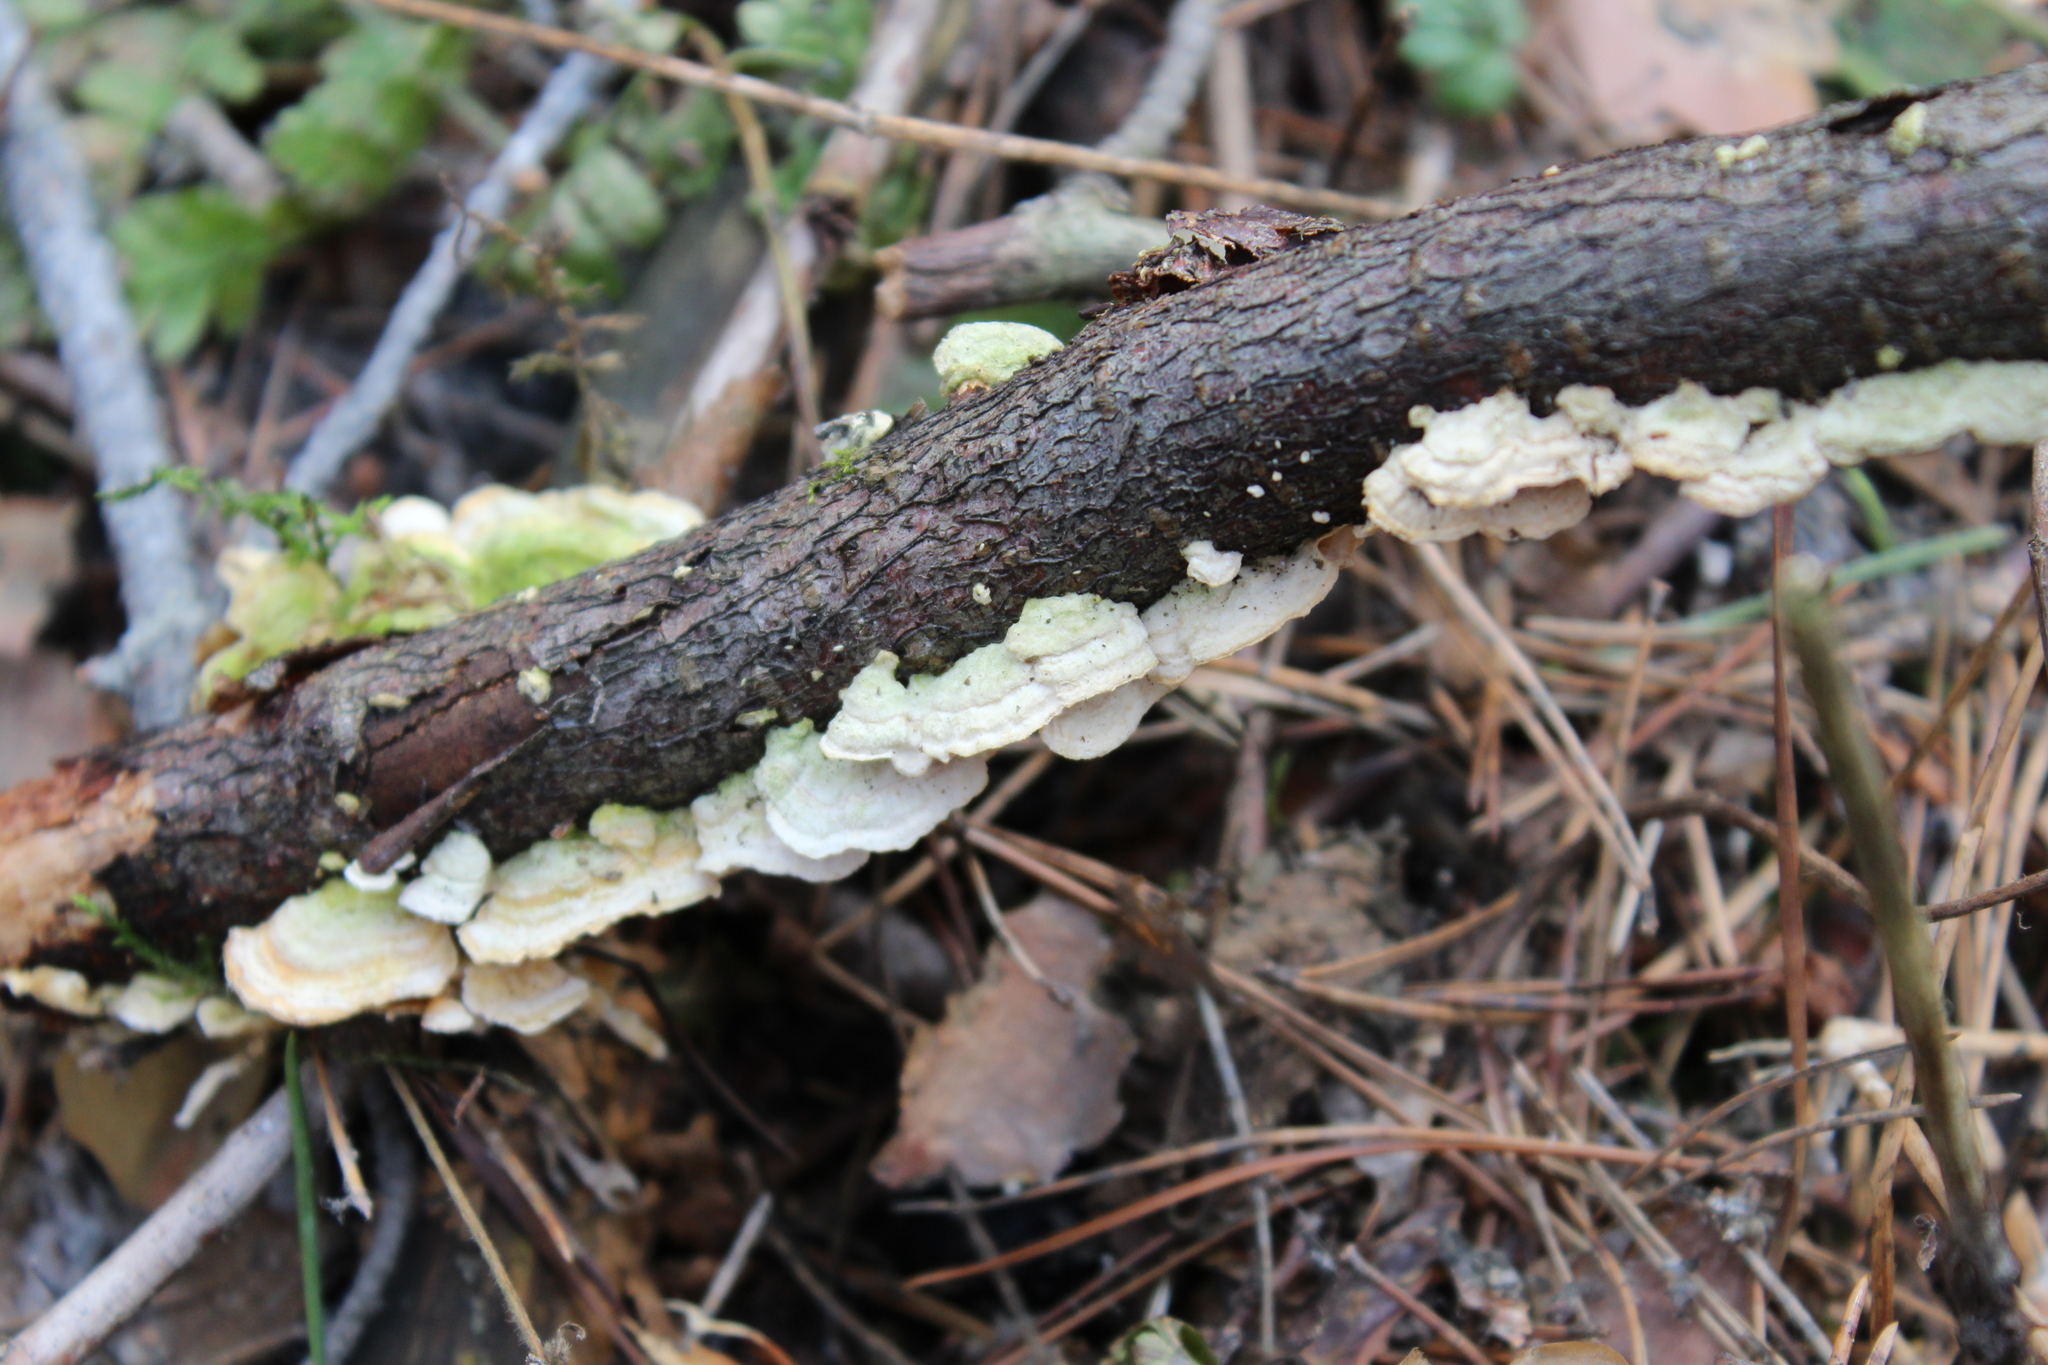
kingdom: Fungi
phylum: Basidiomycota
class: Agaricomycetes
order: Polyporales
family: Steccherinaceae
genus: Steccherinum
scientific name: Steccherinum ochraceum
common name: Ochre spreading tooth
